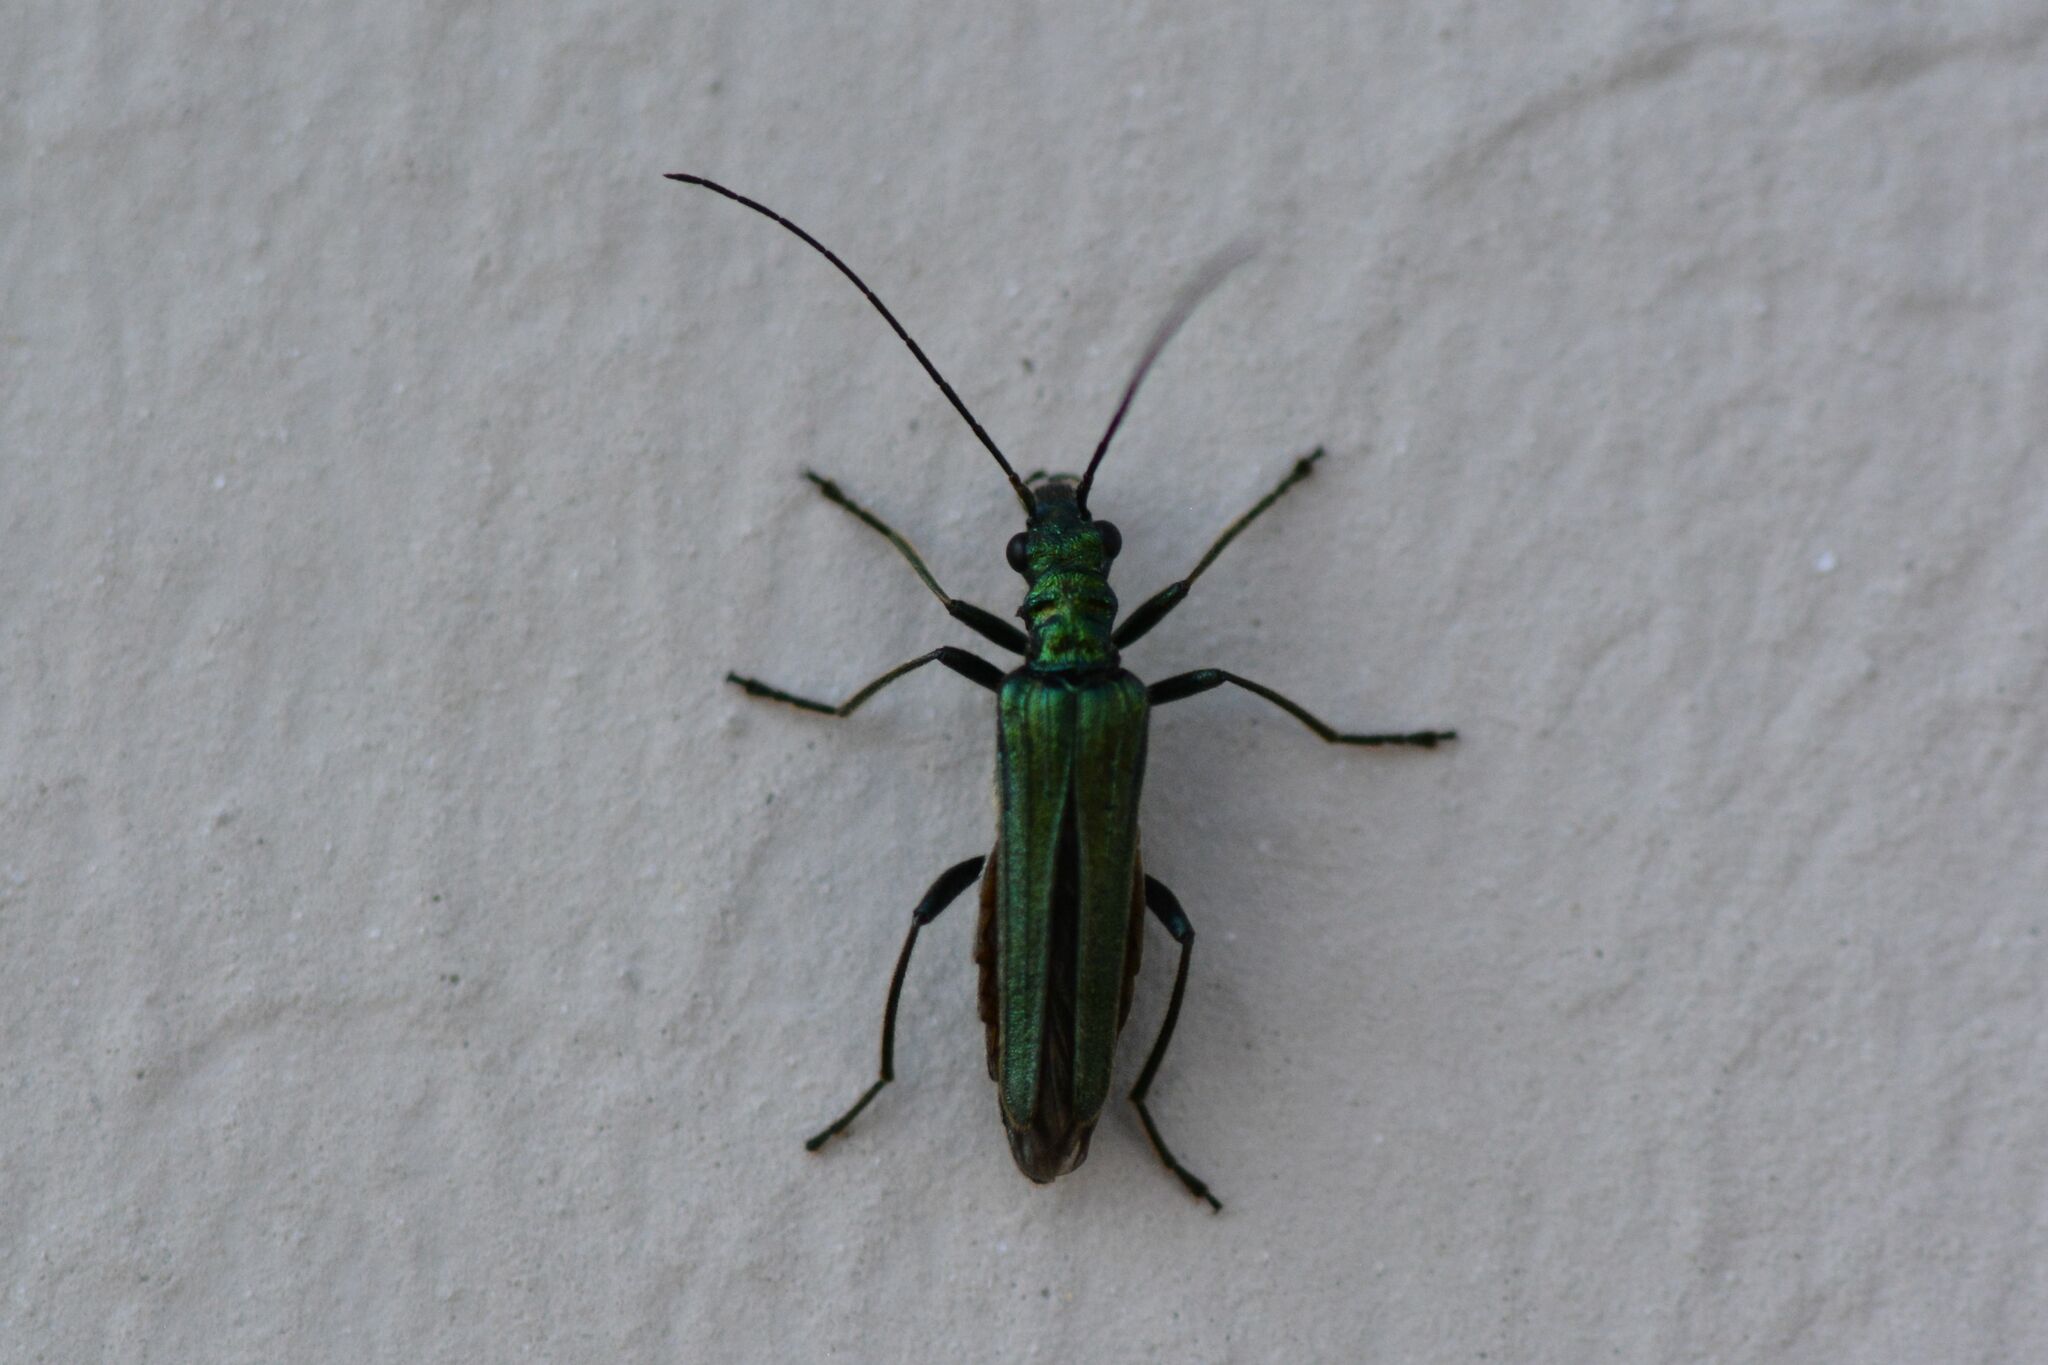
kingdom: Animalia
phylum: Arthropoda
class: Insecta
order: Coleoptera
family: Oedemeridae
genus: Oedemera
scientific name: Oedemera nobilis
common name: Swollen-thighed beetle
